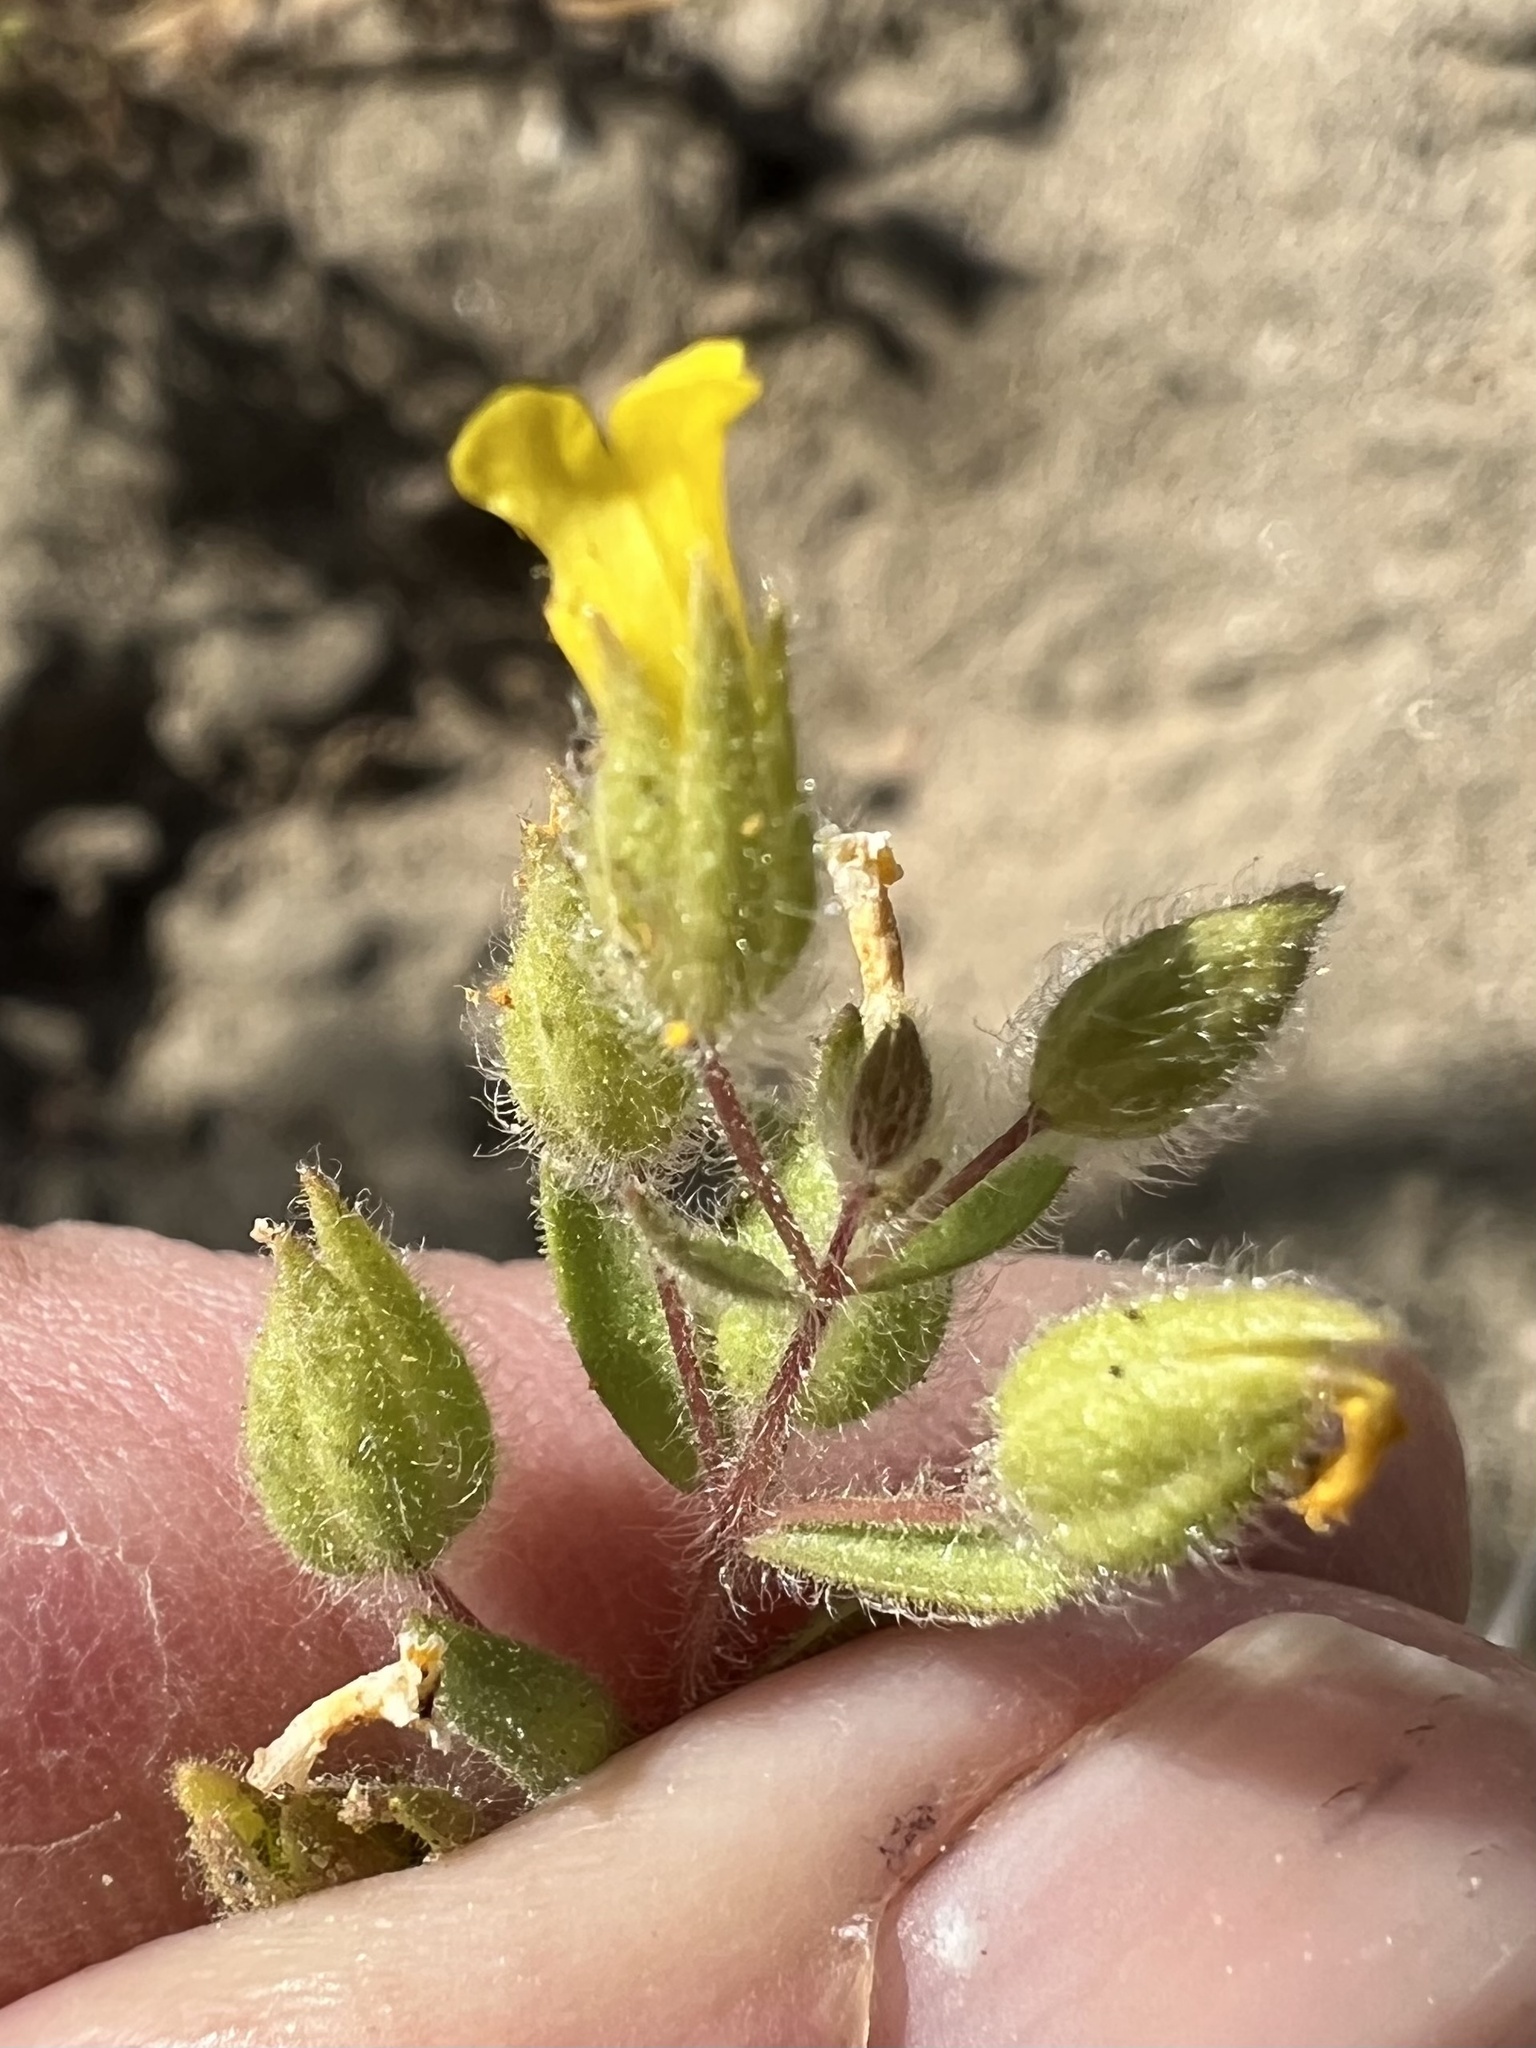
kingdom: Plantae
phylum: Tracheophyta
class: Magnoliopsida
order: Lamiales
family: Phrymaceae
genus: Mimetanthe
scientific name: Mimetanthe pilosa
